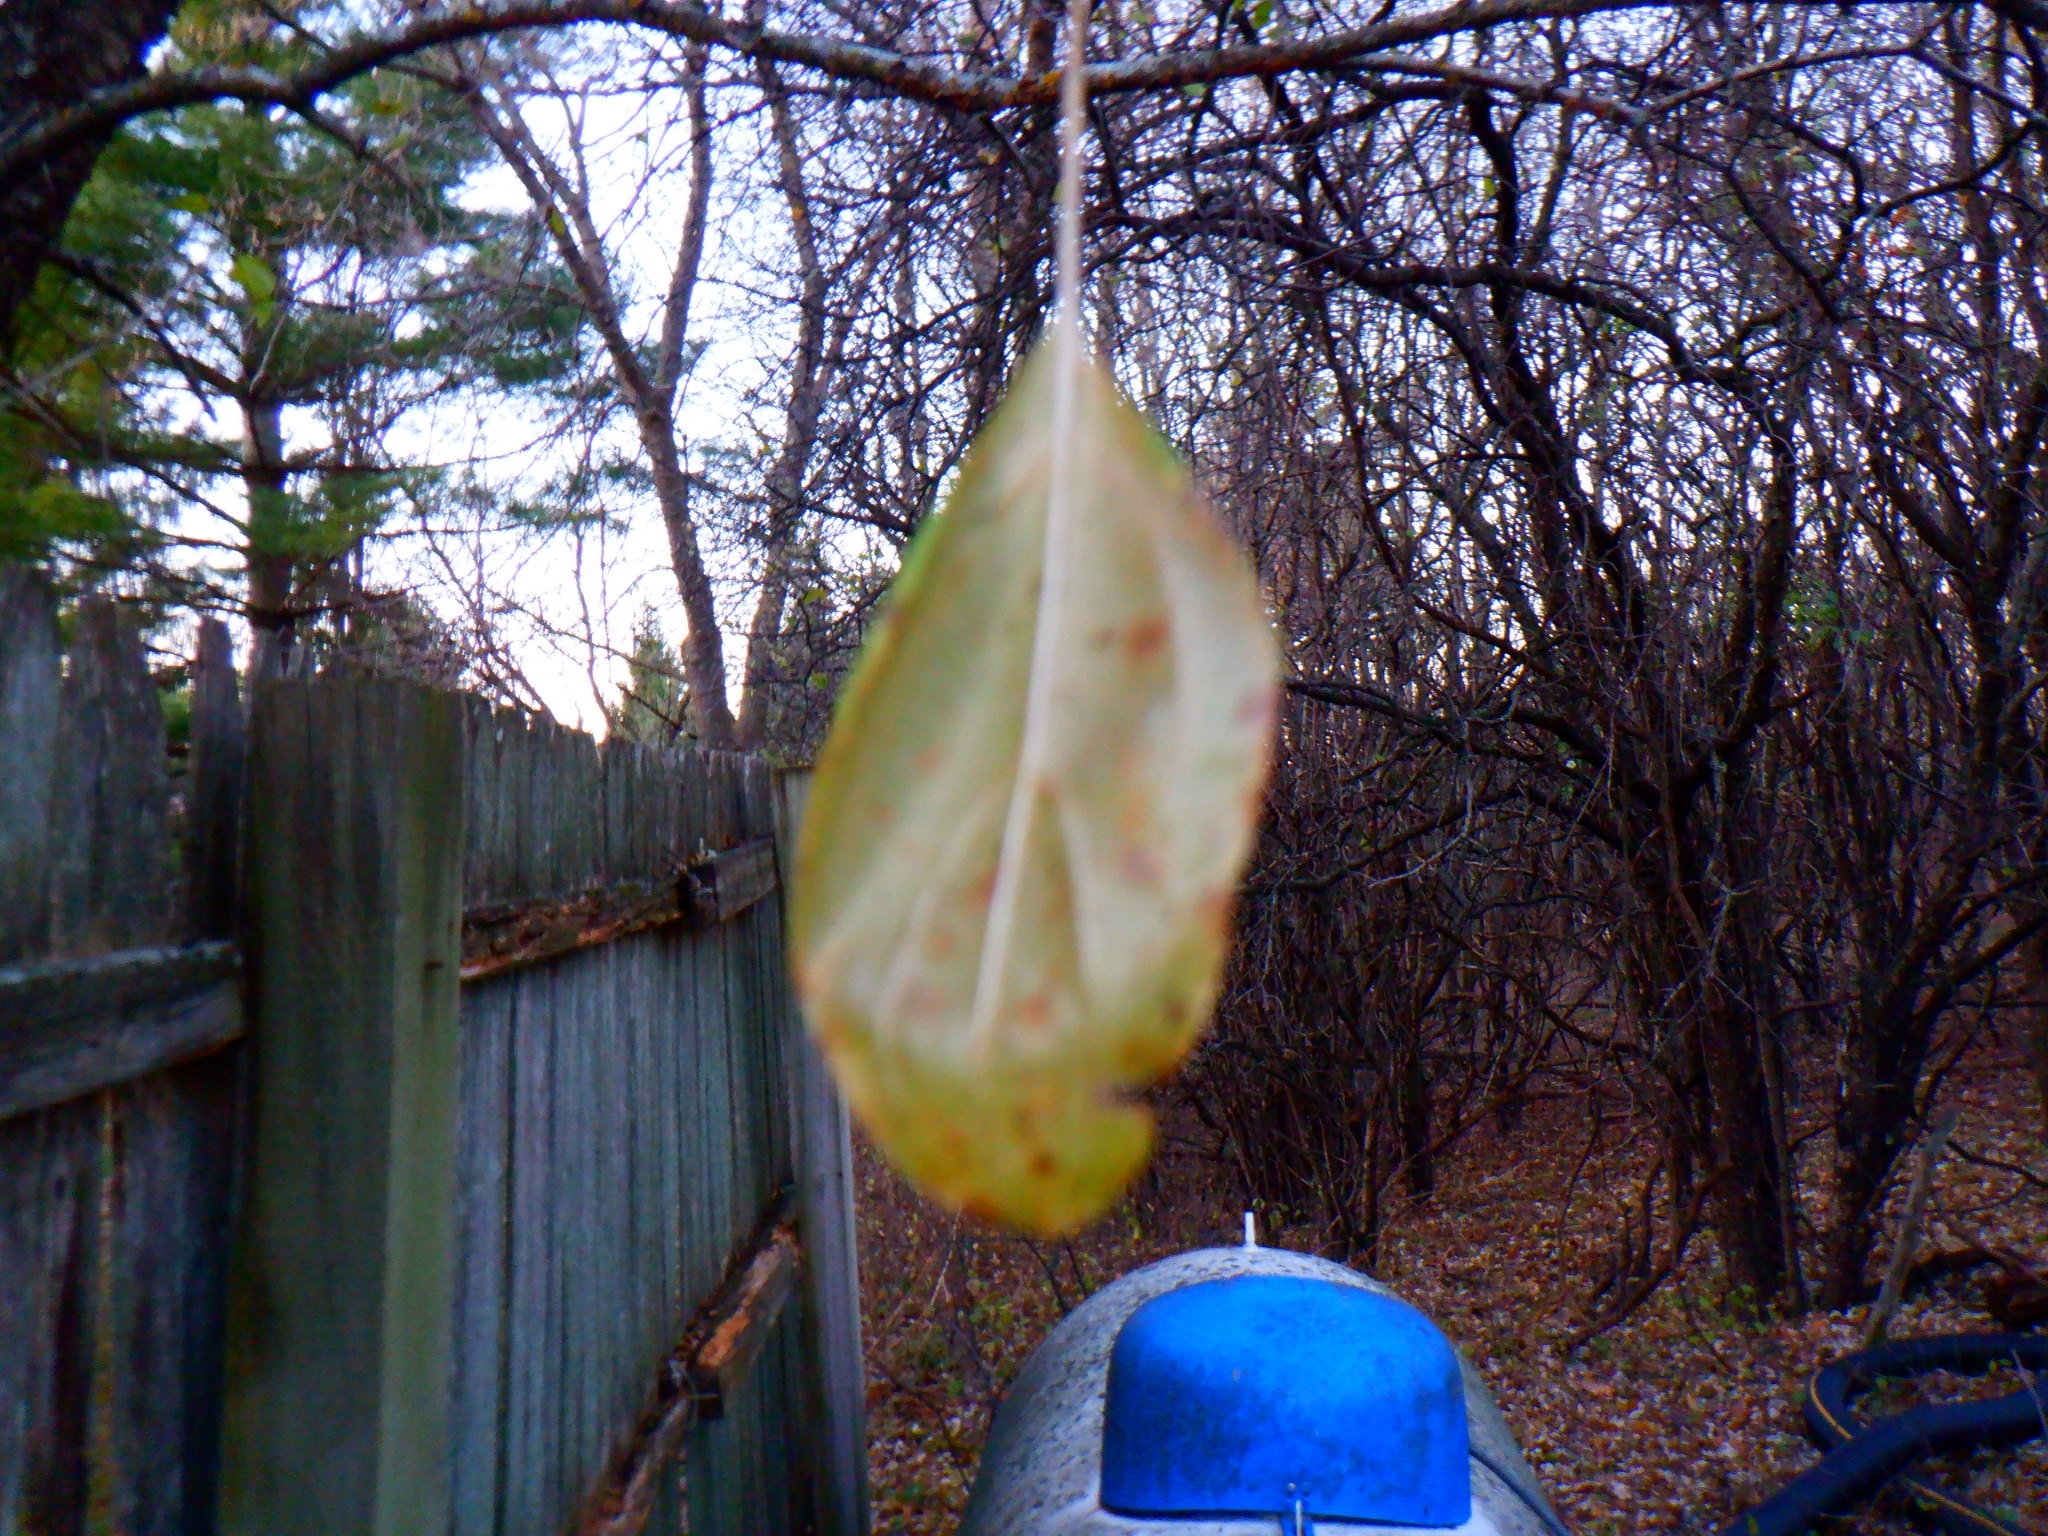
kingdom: Plantae
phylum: Tracheophyta
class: Magnoliopsida
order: Rosales
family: Rhamnaceae
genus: Rhamnus
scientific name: Rhamnus cathartica
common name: Common buckthorn
